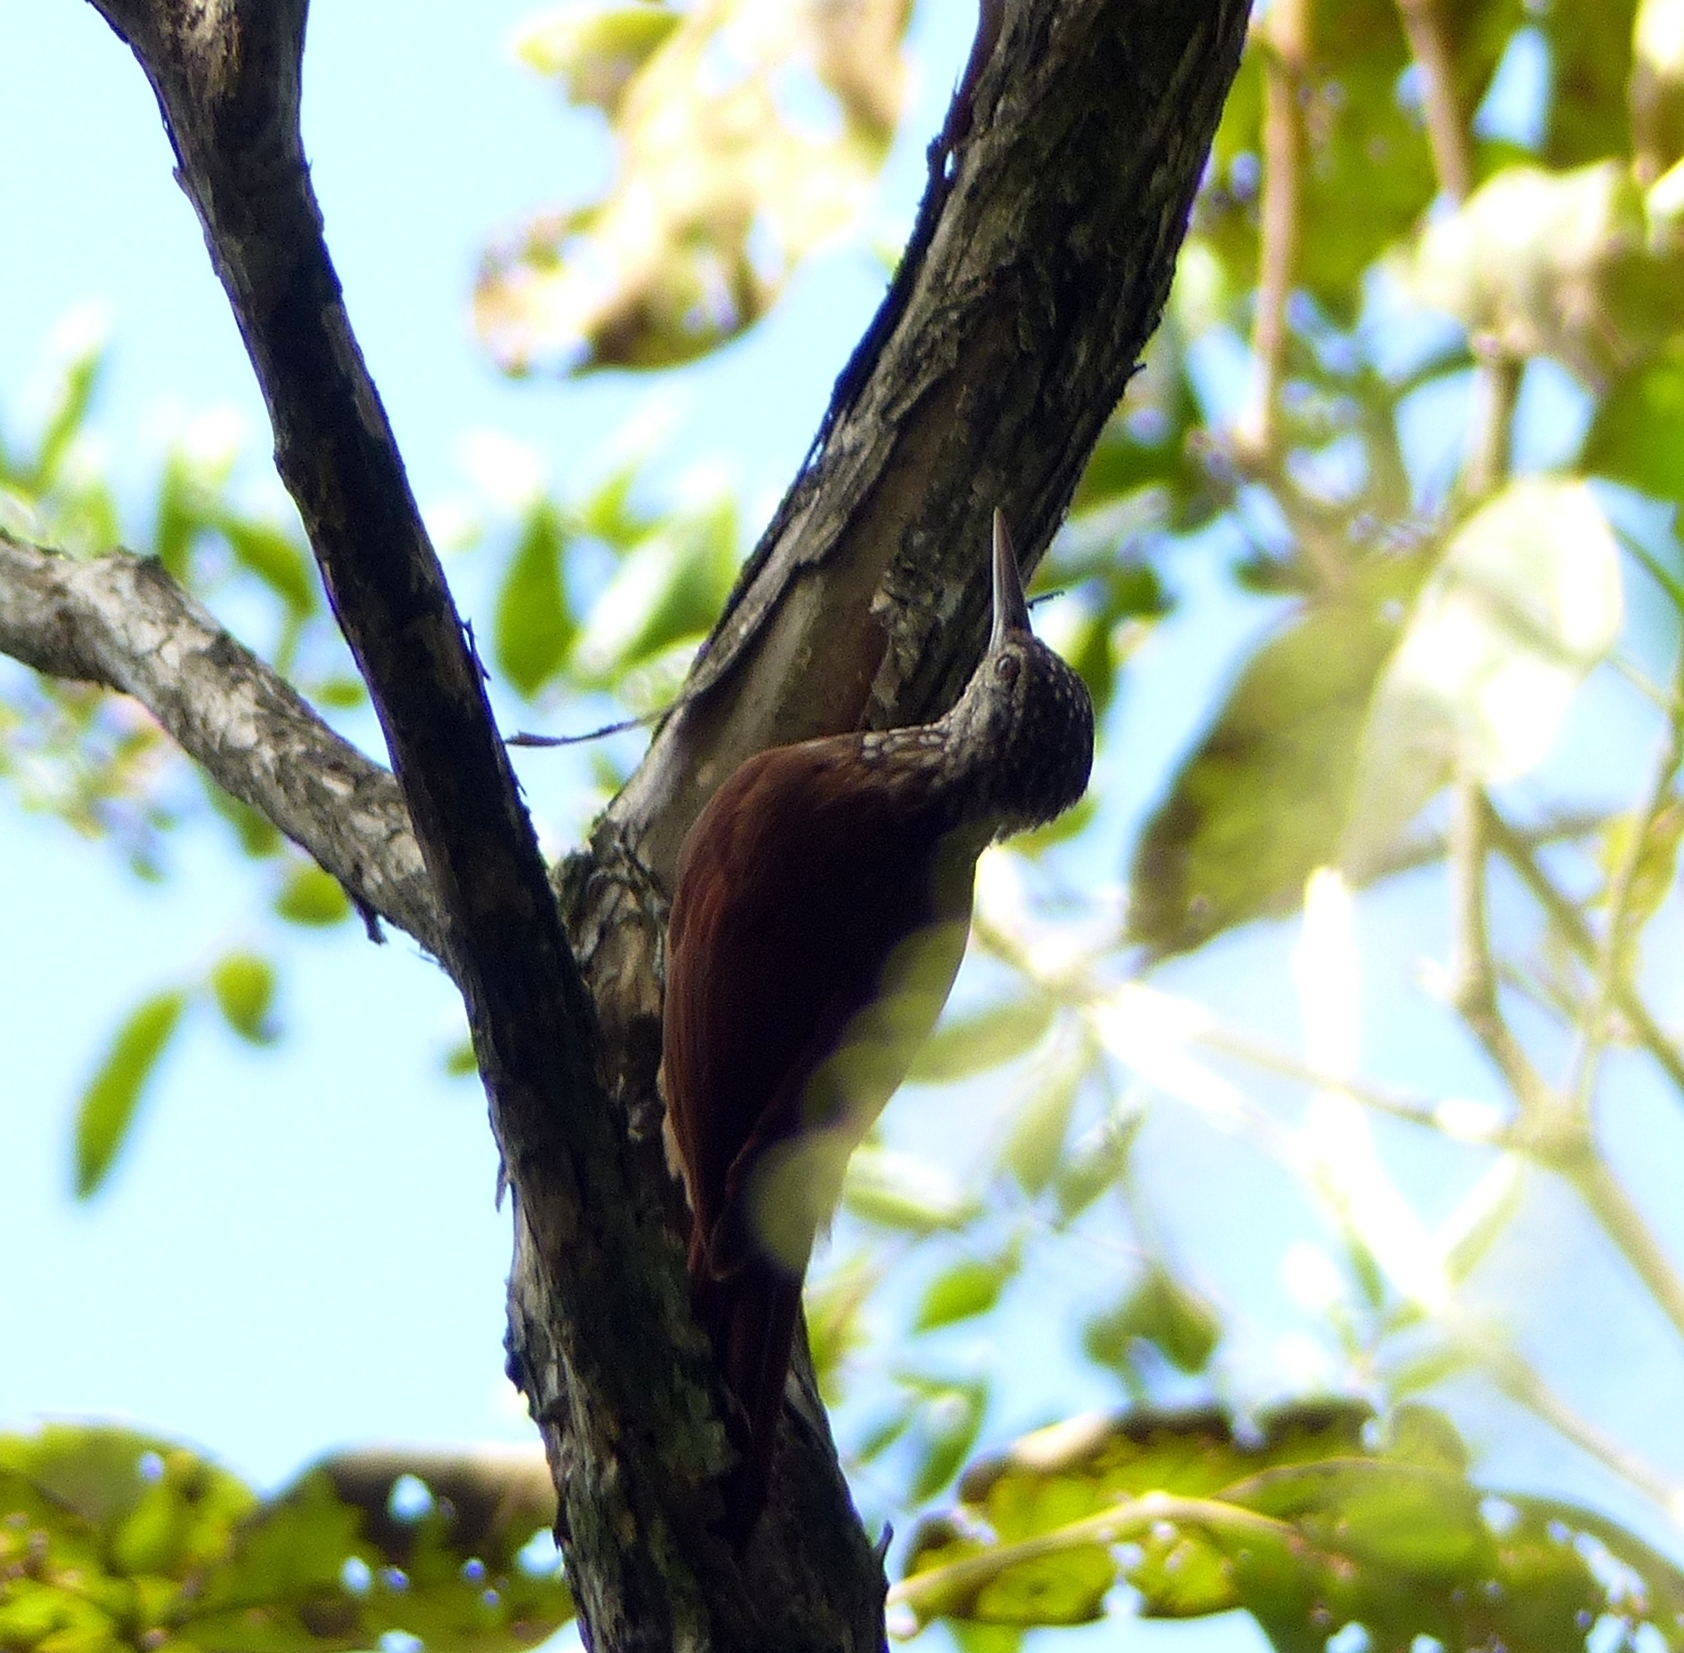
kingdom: Animalia
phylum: Chordata
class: Aves
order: Passeriformes
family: Furnariidae
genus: Xiphorhynchus
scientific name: Xiphorhynchus picus
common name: Straight-billed woodcreeper
